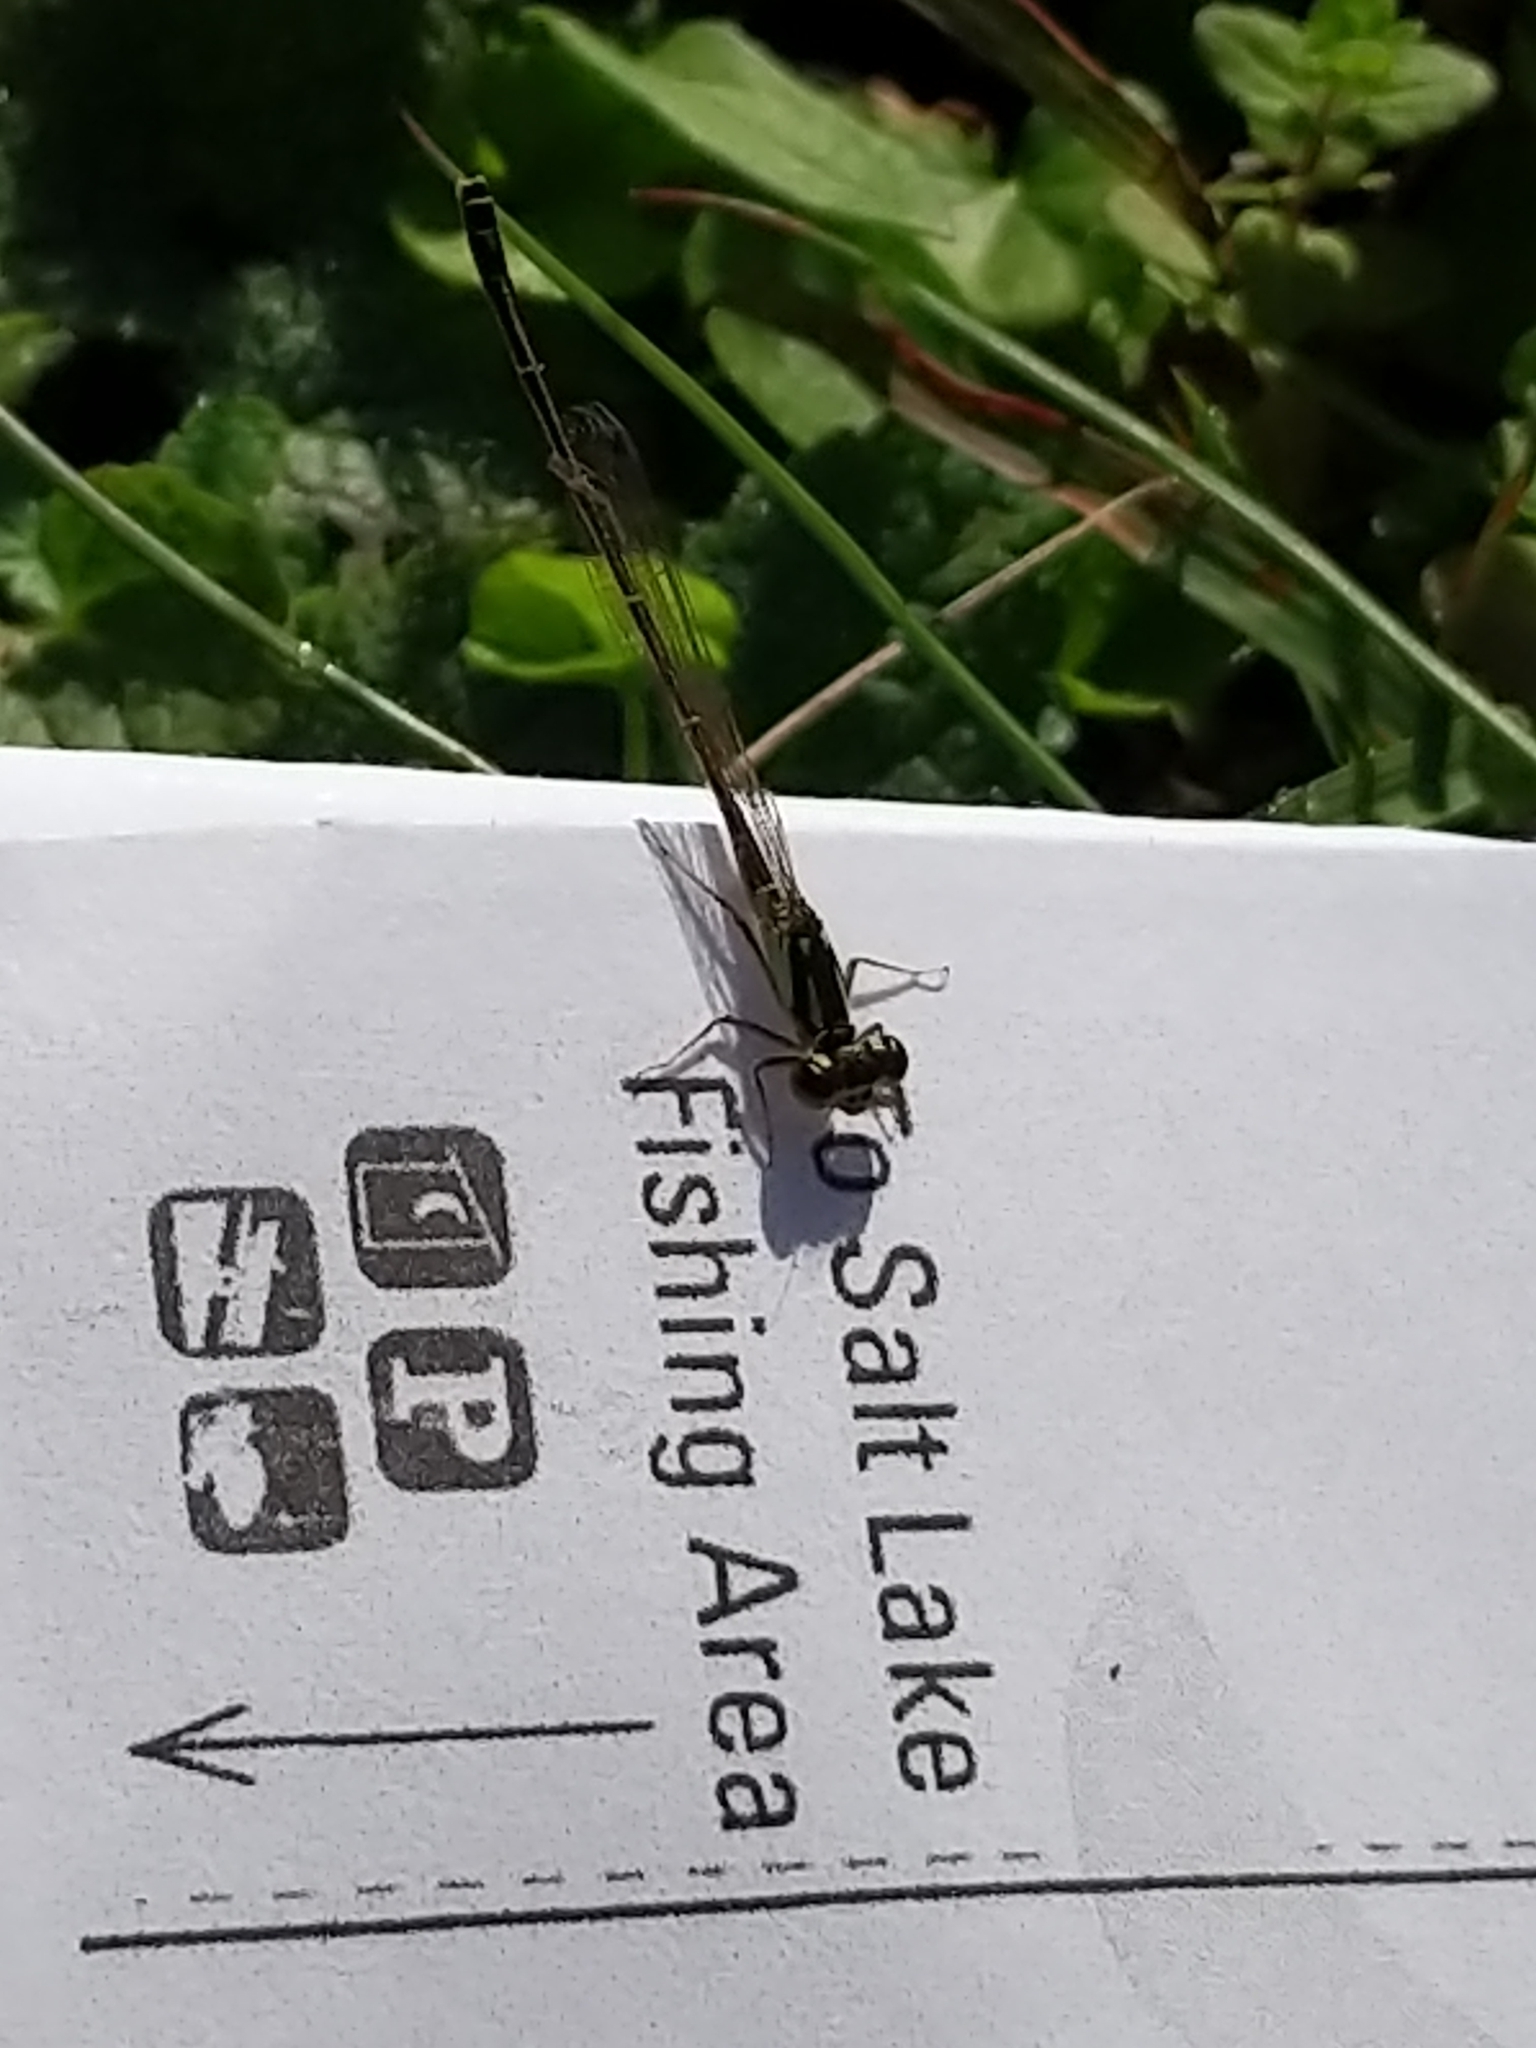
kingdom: Animalia
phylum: Arthropoda
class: Insecta
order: Odonata
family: Coenagrionidae
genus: Ischnura
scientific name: Ischnura posita
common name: Fragile forktail
